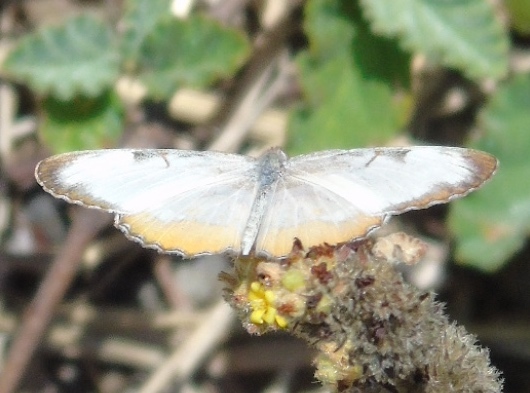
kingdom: Animalia
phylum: Arthropoda
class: Insecta
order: Lepidoptera
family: Nymphalidae
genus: Mestra
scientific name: Mestra amymone
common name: Common mestra
